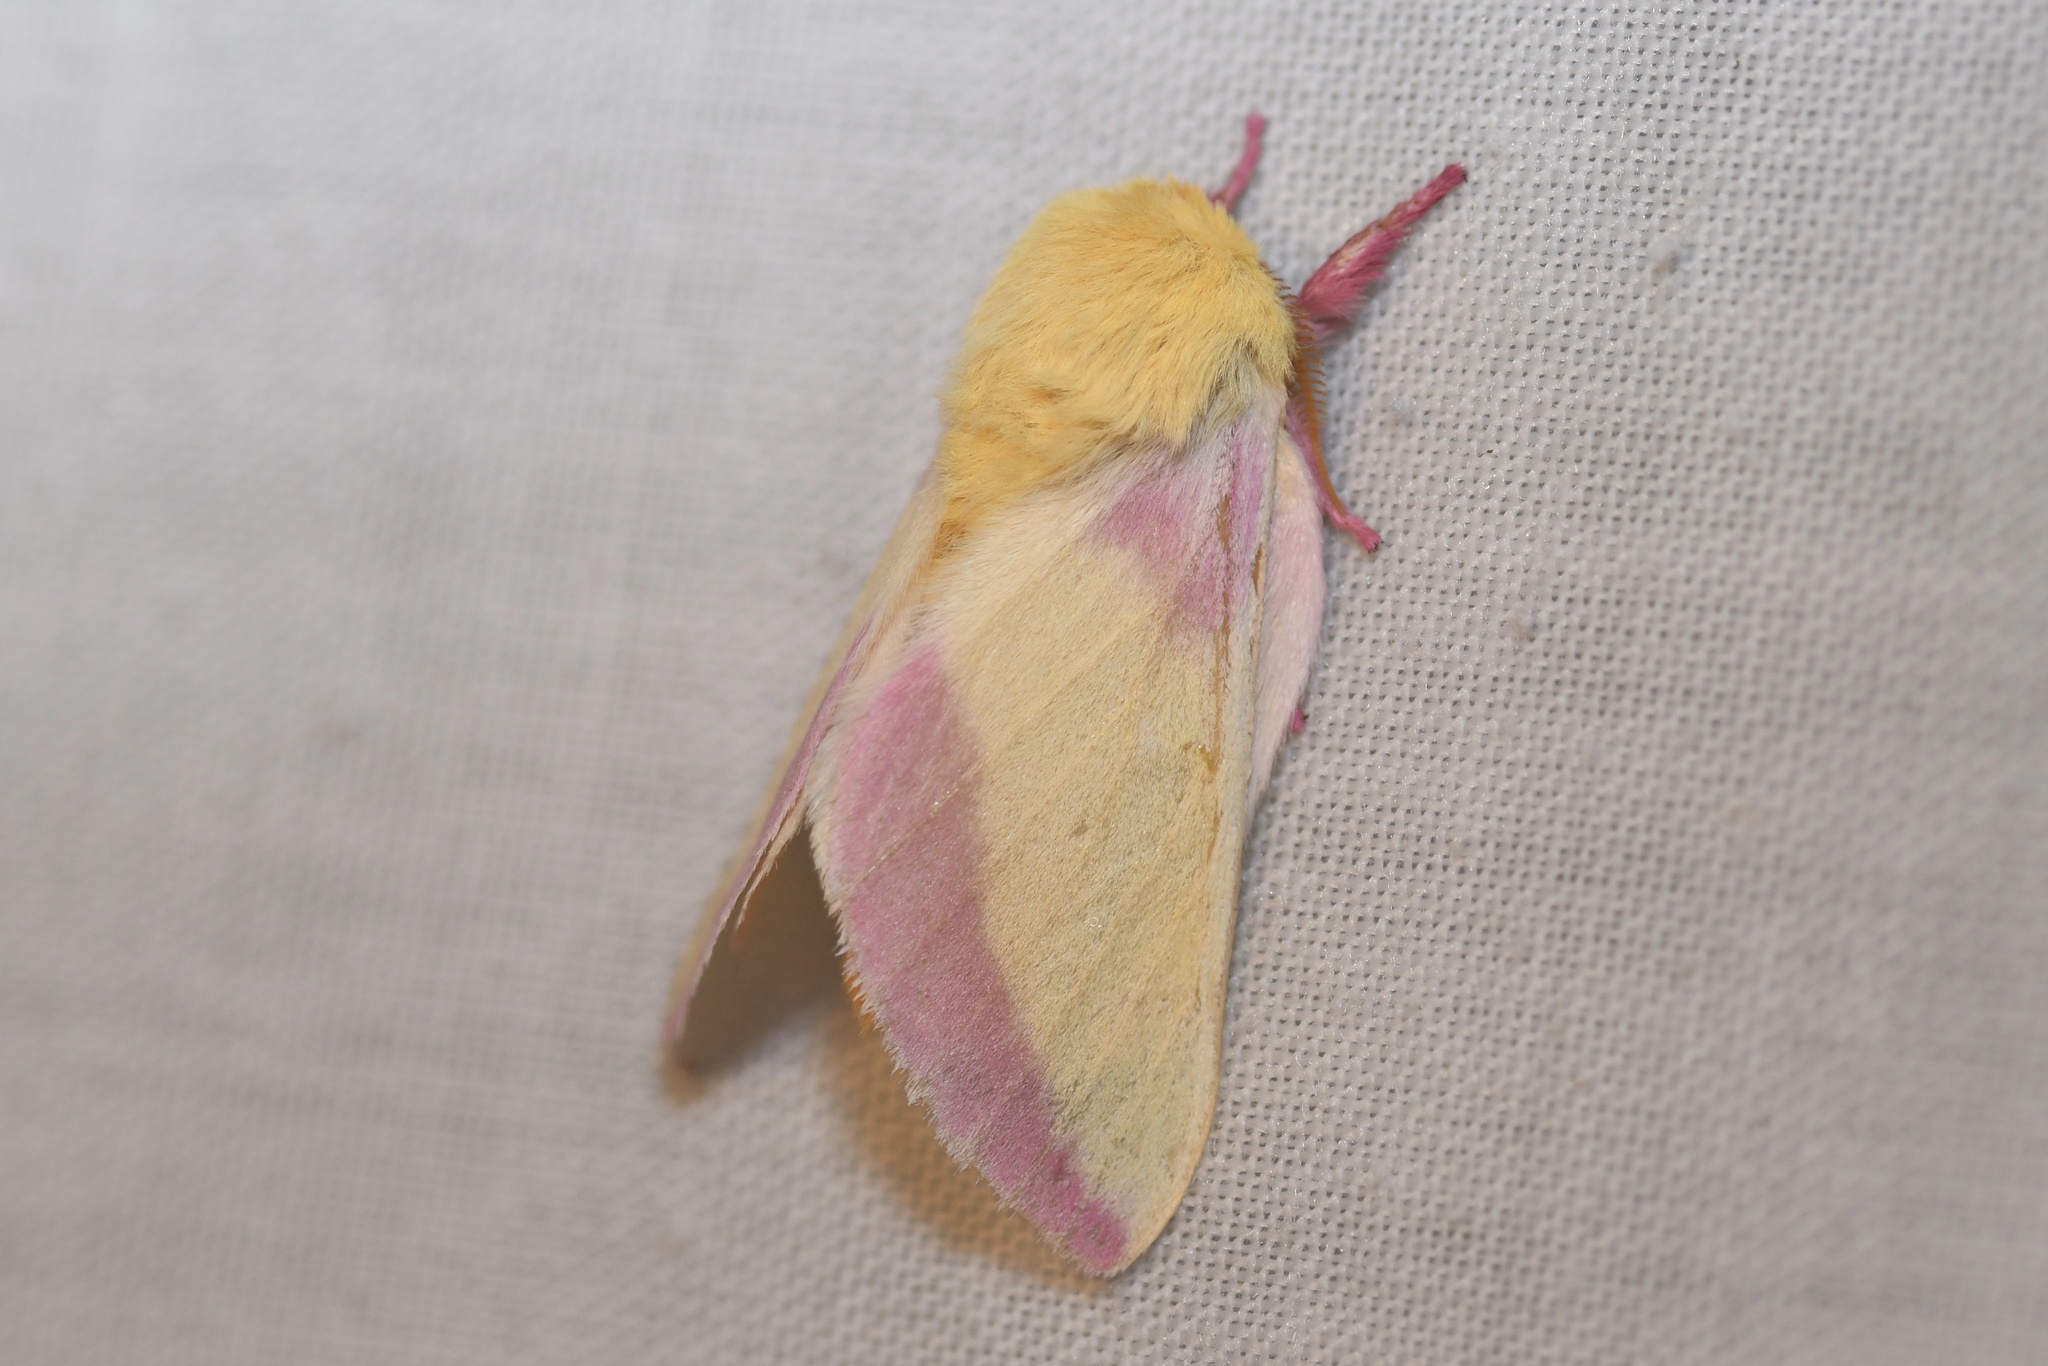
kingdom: Animalia
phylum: Arthropoda
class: Insecta
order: Lepidoptera
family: Saturniidae
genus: Dryocampa
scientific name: Dryocampa rubicunda
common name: Rosy maple moth
